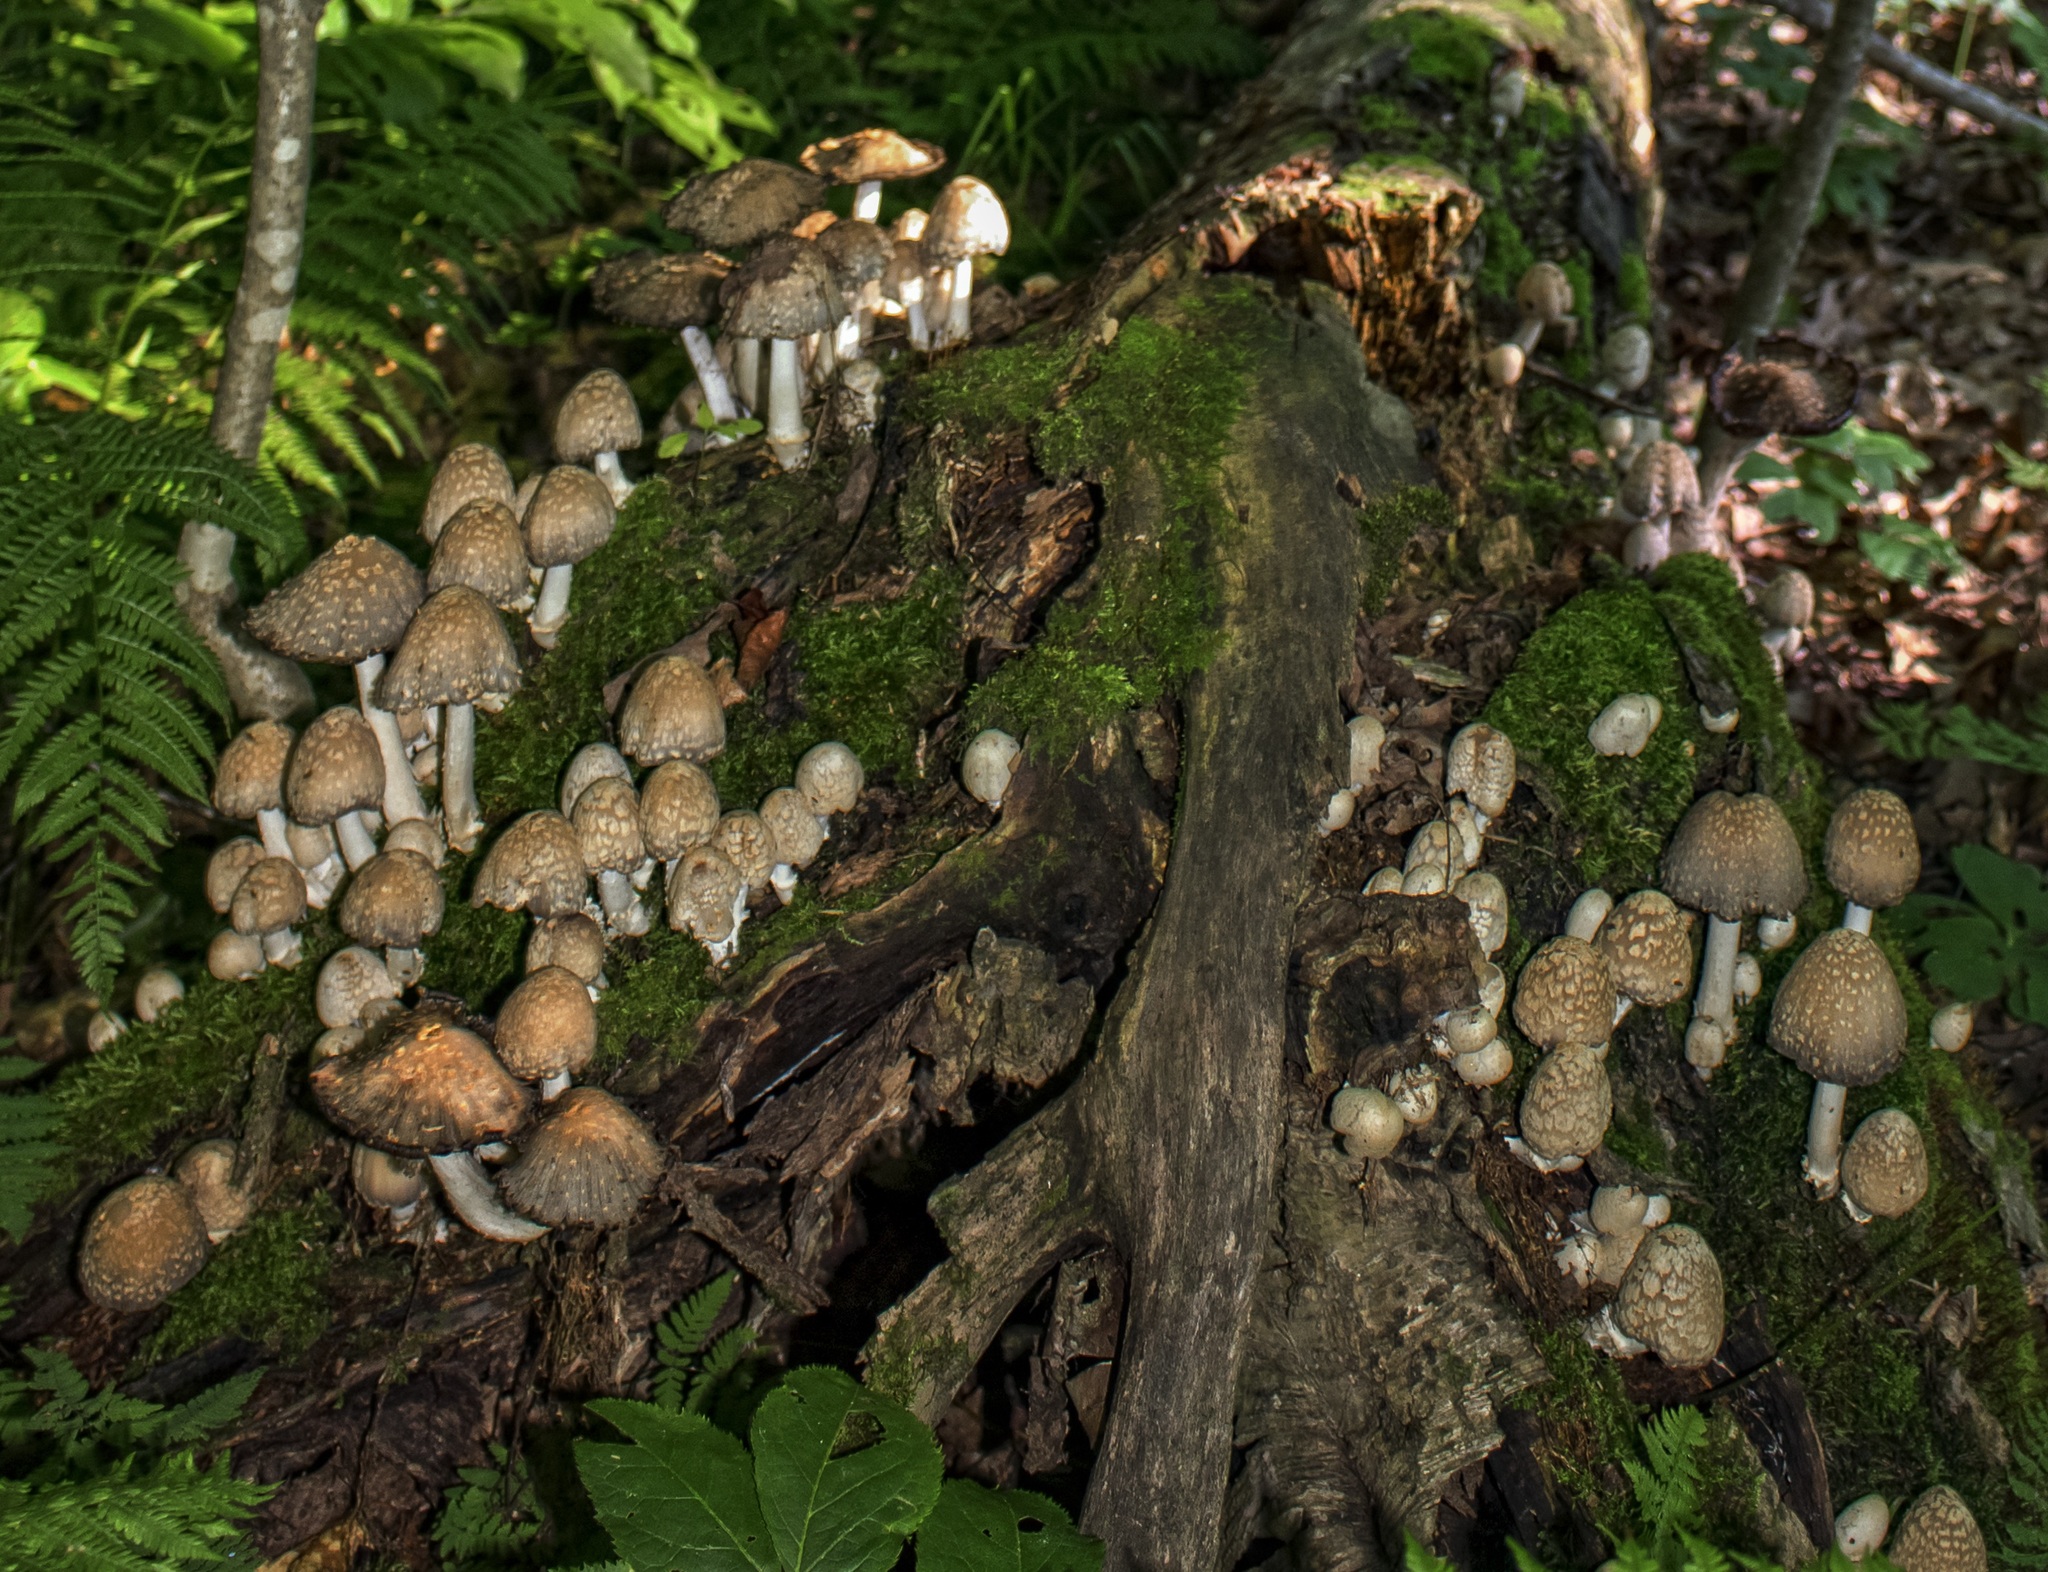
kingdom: Fungi
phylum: Basidiomycota
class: Agaricomycetes
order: Agaricales
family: Psathyrellaceae
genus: Coprinopsis
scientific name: Coprinopsis variegata
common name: Scaly ink cap
